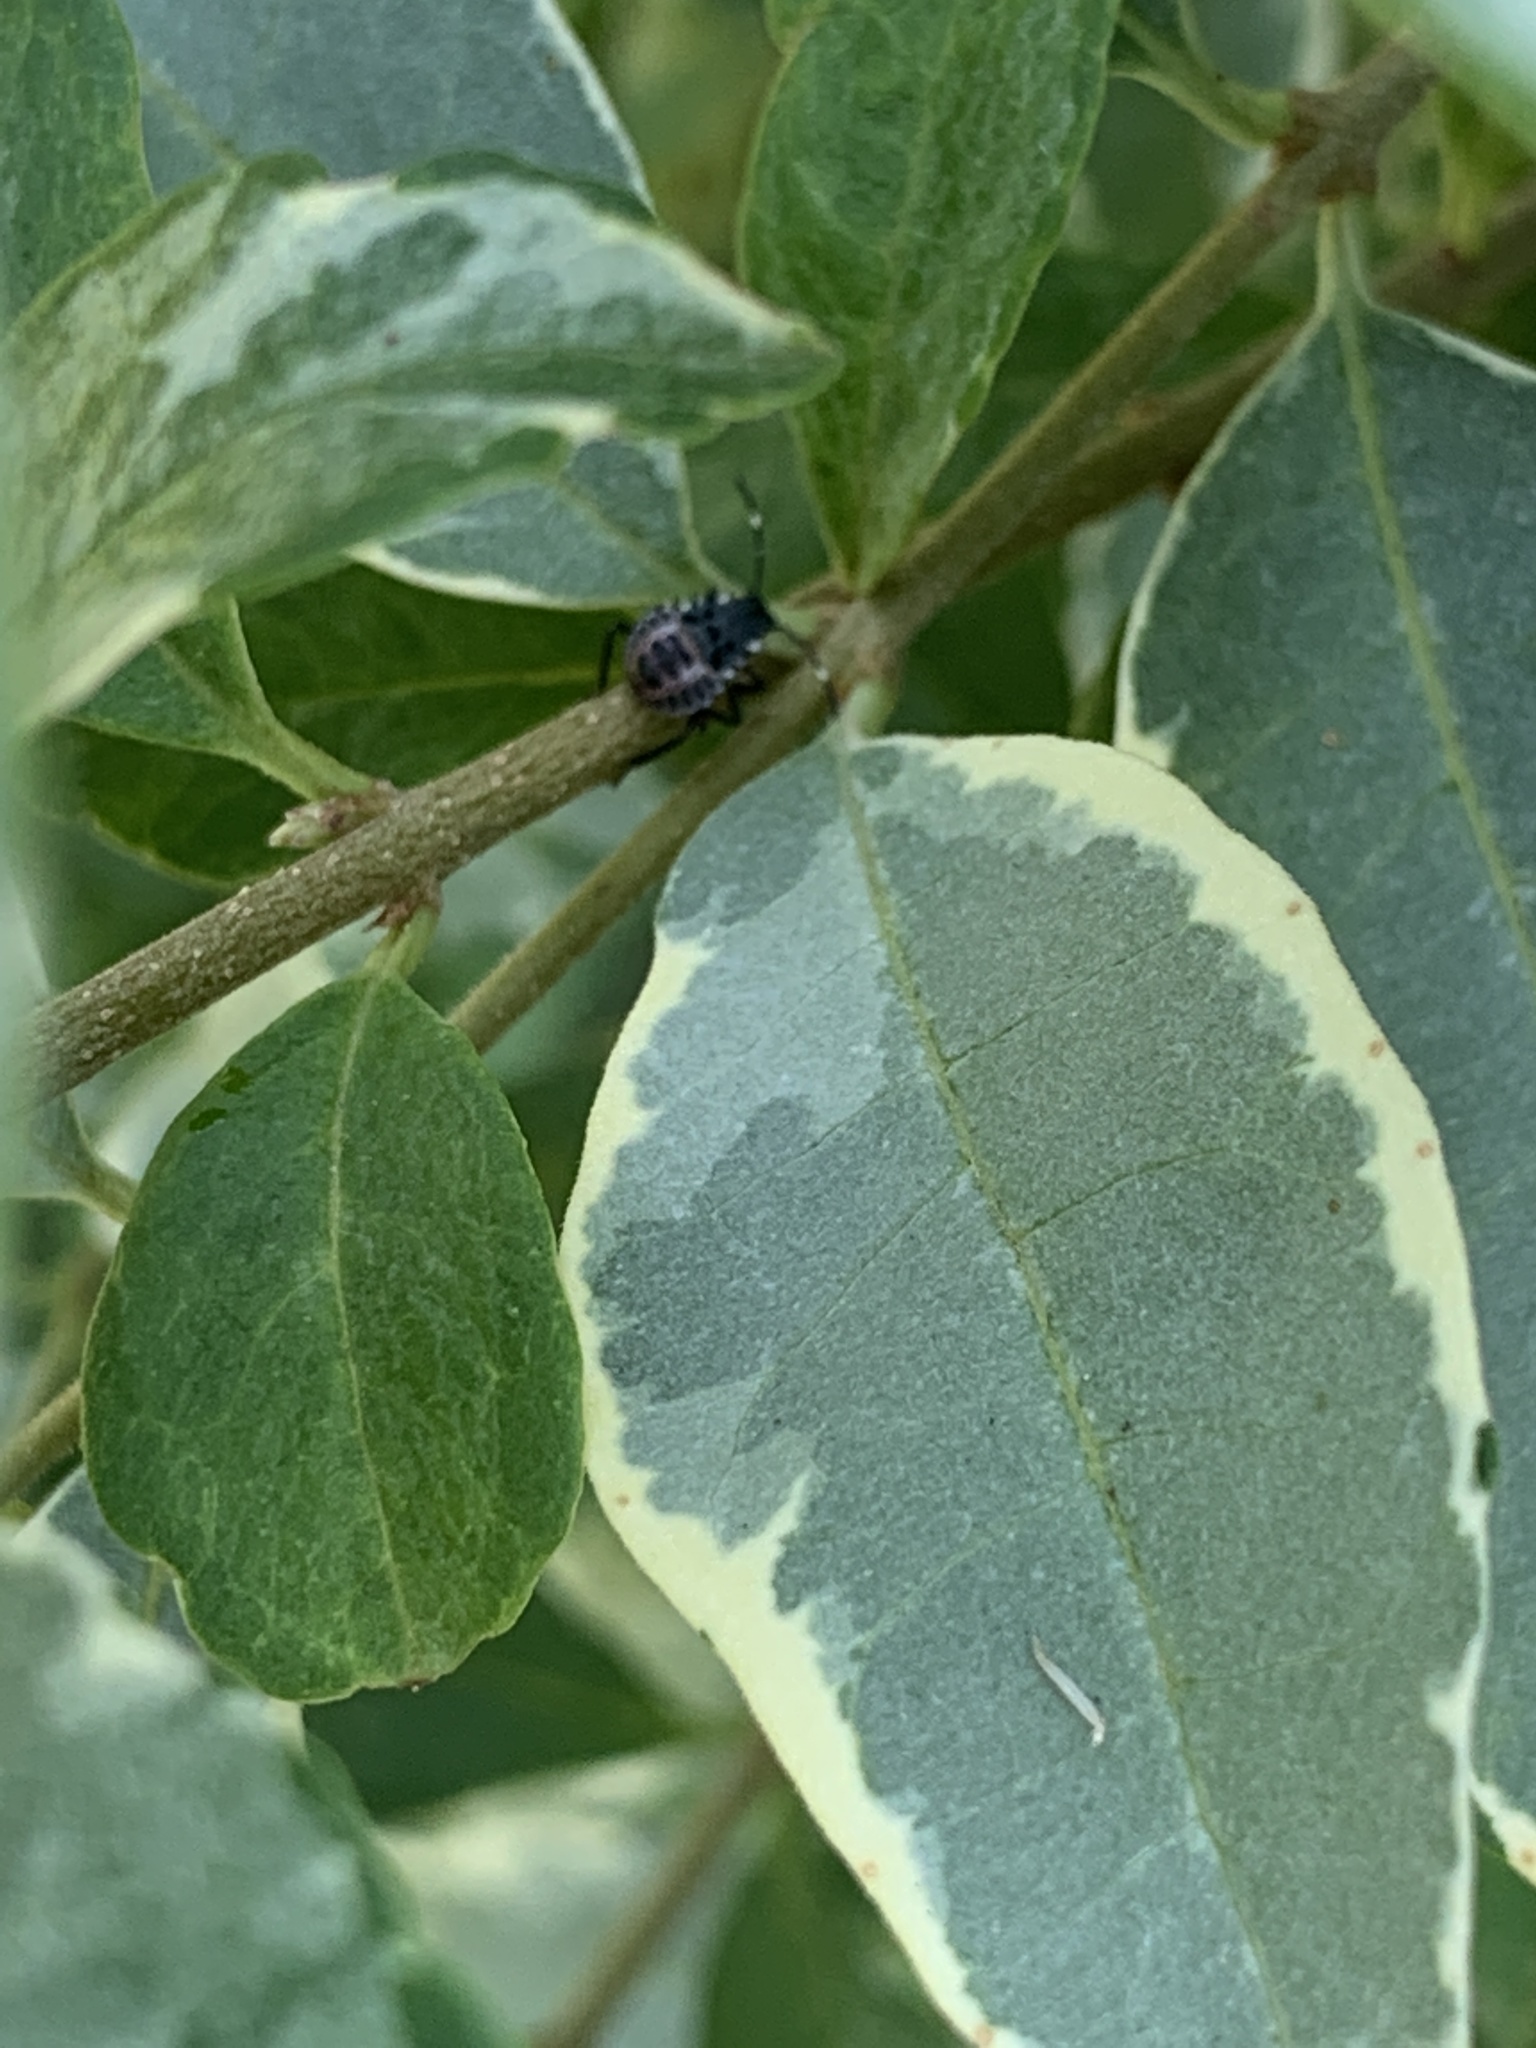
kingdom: Animalia
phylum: Arthropoda
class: Insecta
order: Hemiptera
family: Pentatomidae
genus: Halyomorpha
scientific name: Halyomorpha halys
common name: Brown marmorated stink bug
